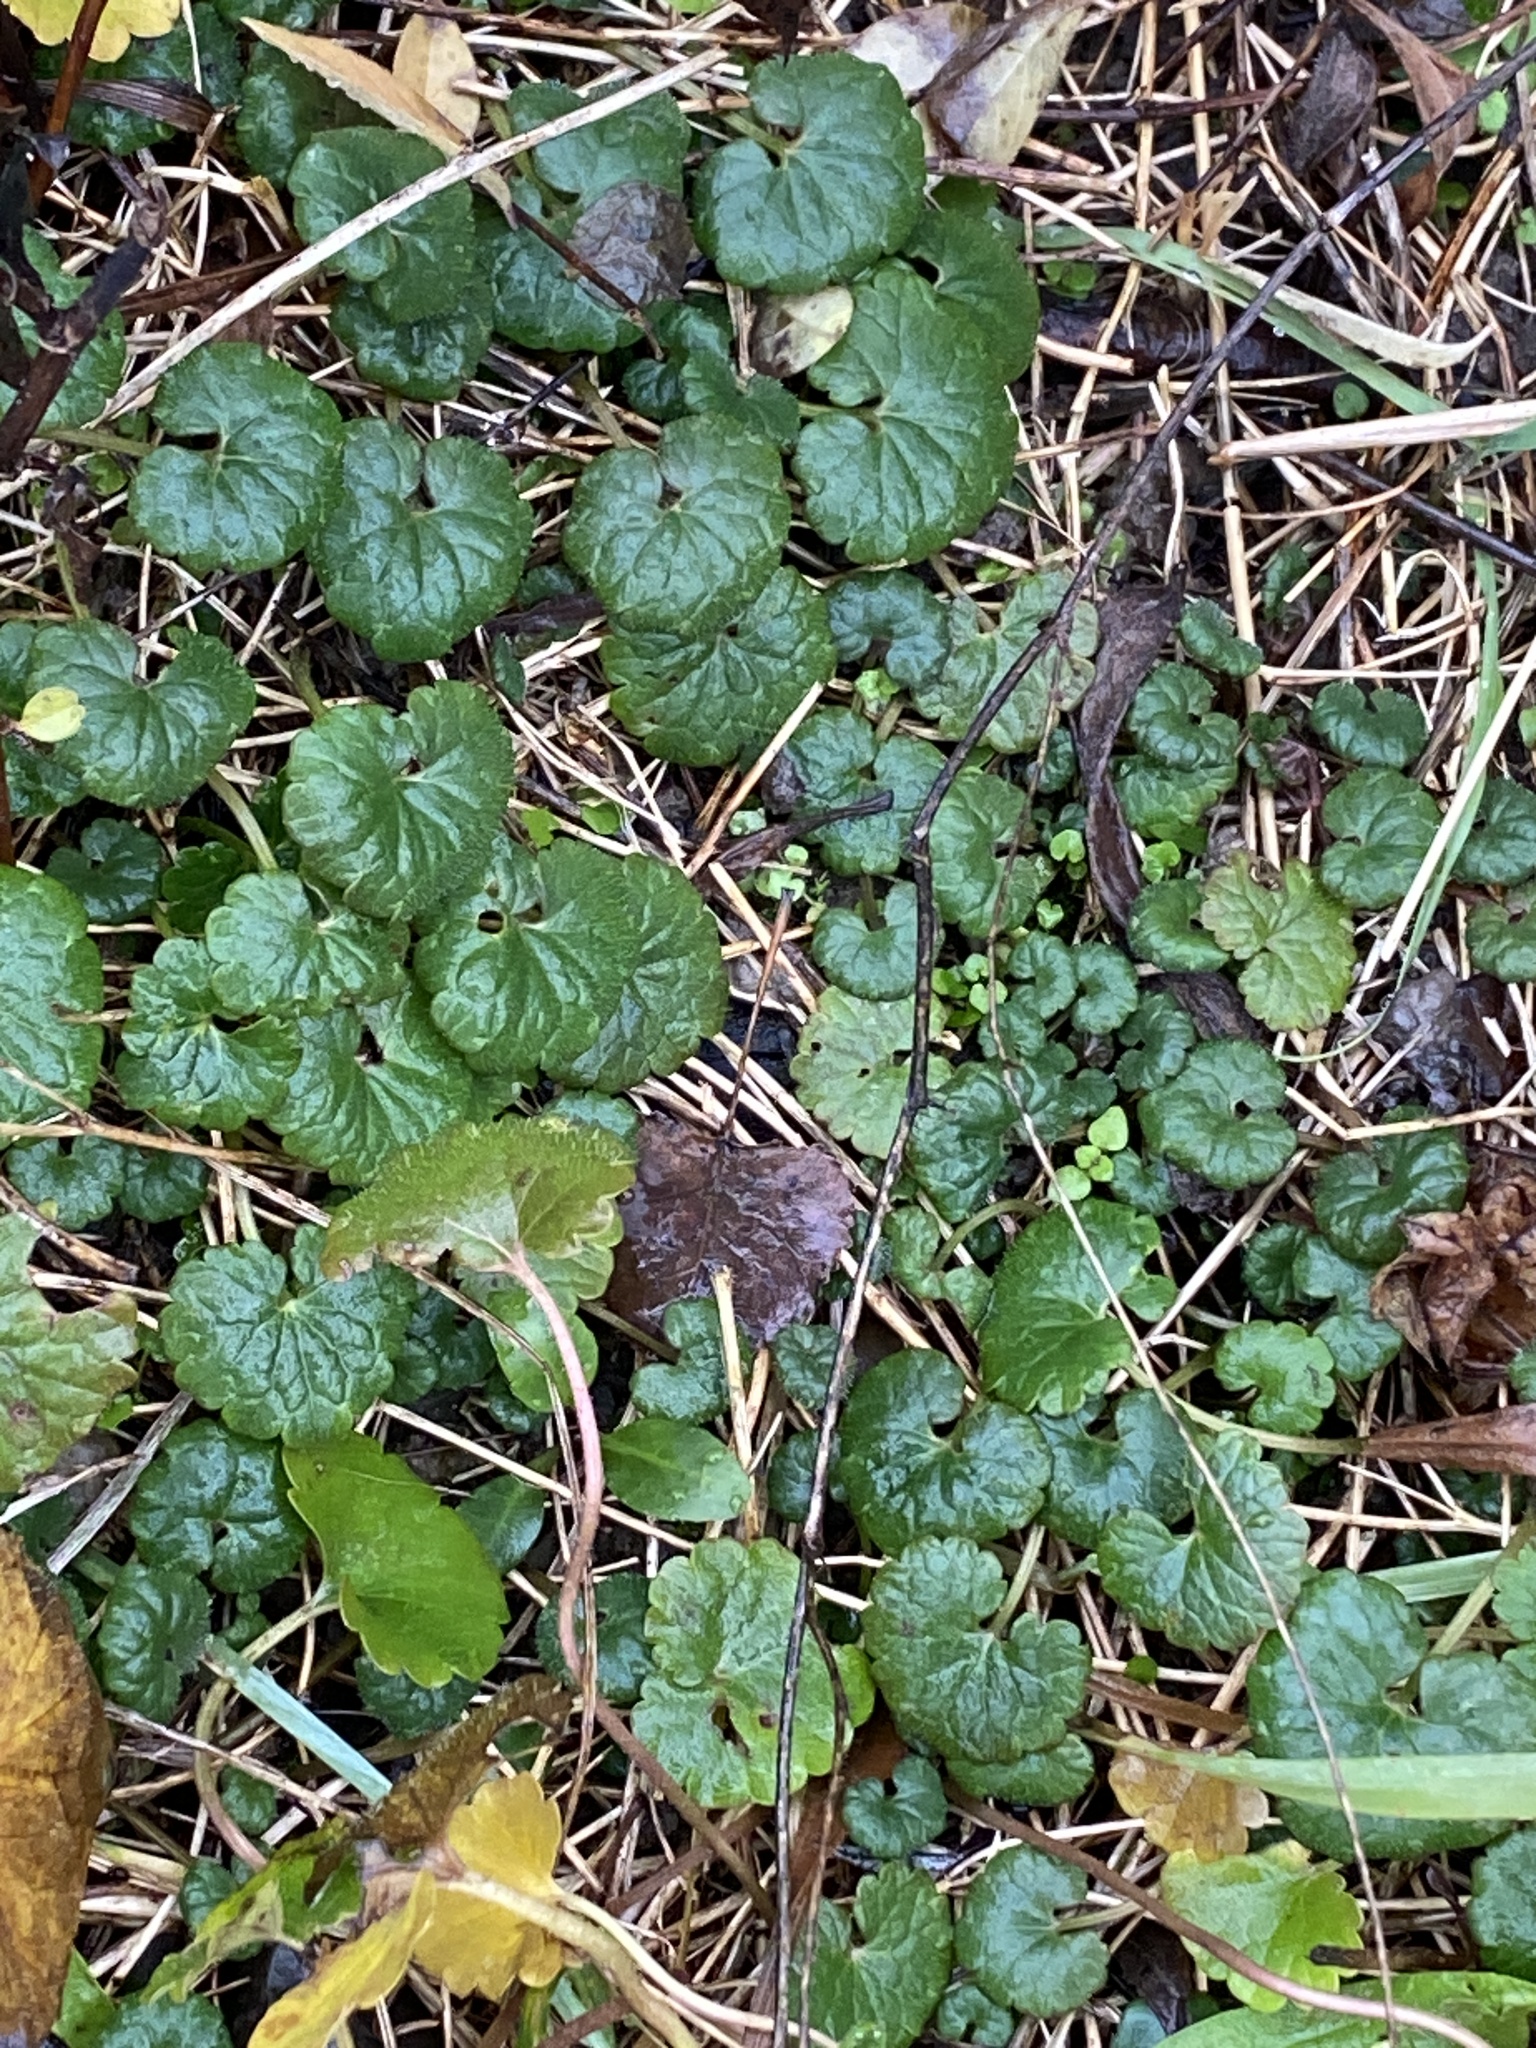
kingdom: Plantae
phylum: Tracheophyta
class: Magnoliopsida
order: Lamiales
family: Lamiaceae
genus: Glechoma
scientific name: Glechoma hederacea
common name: Ground ivy
